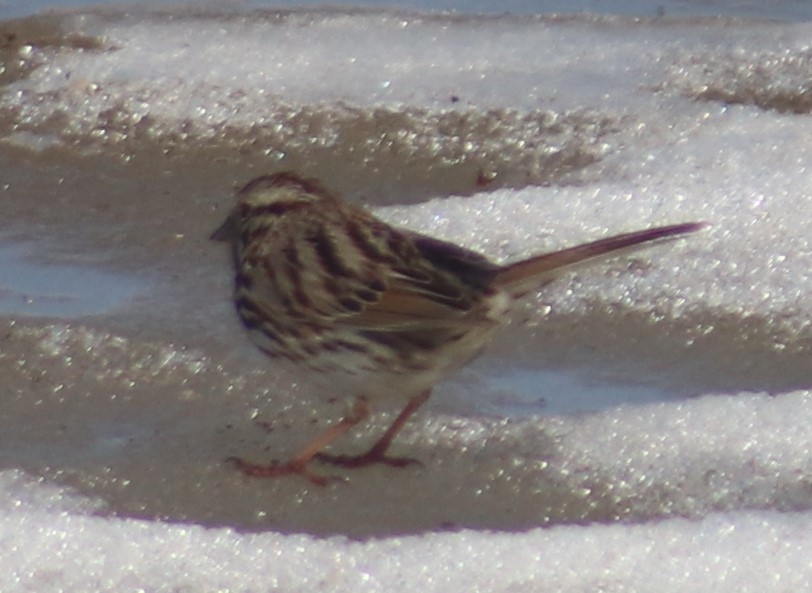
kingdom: Animalia
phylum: Chordata
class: Aves
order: Passeriformes
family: Passerellidae
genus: Melospiza
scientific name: Melospiza melodia
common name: Song sparrow
